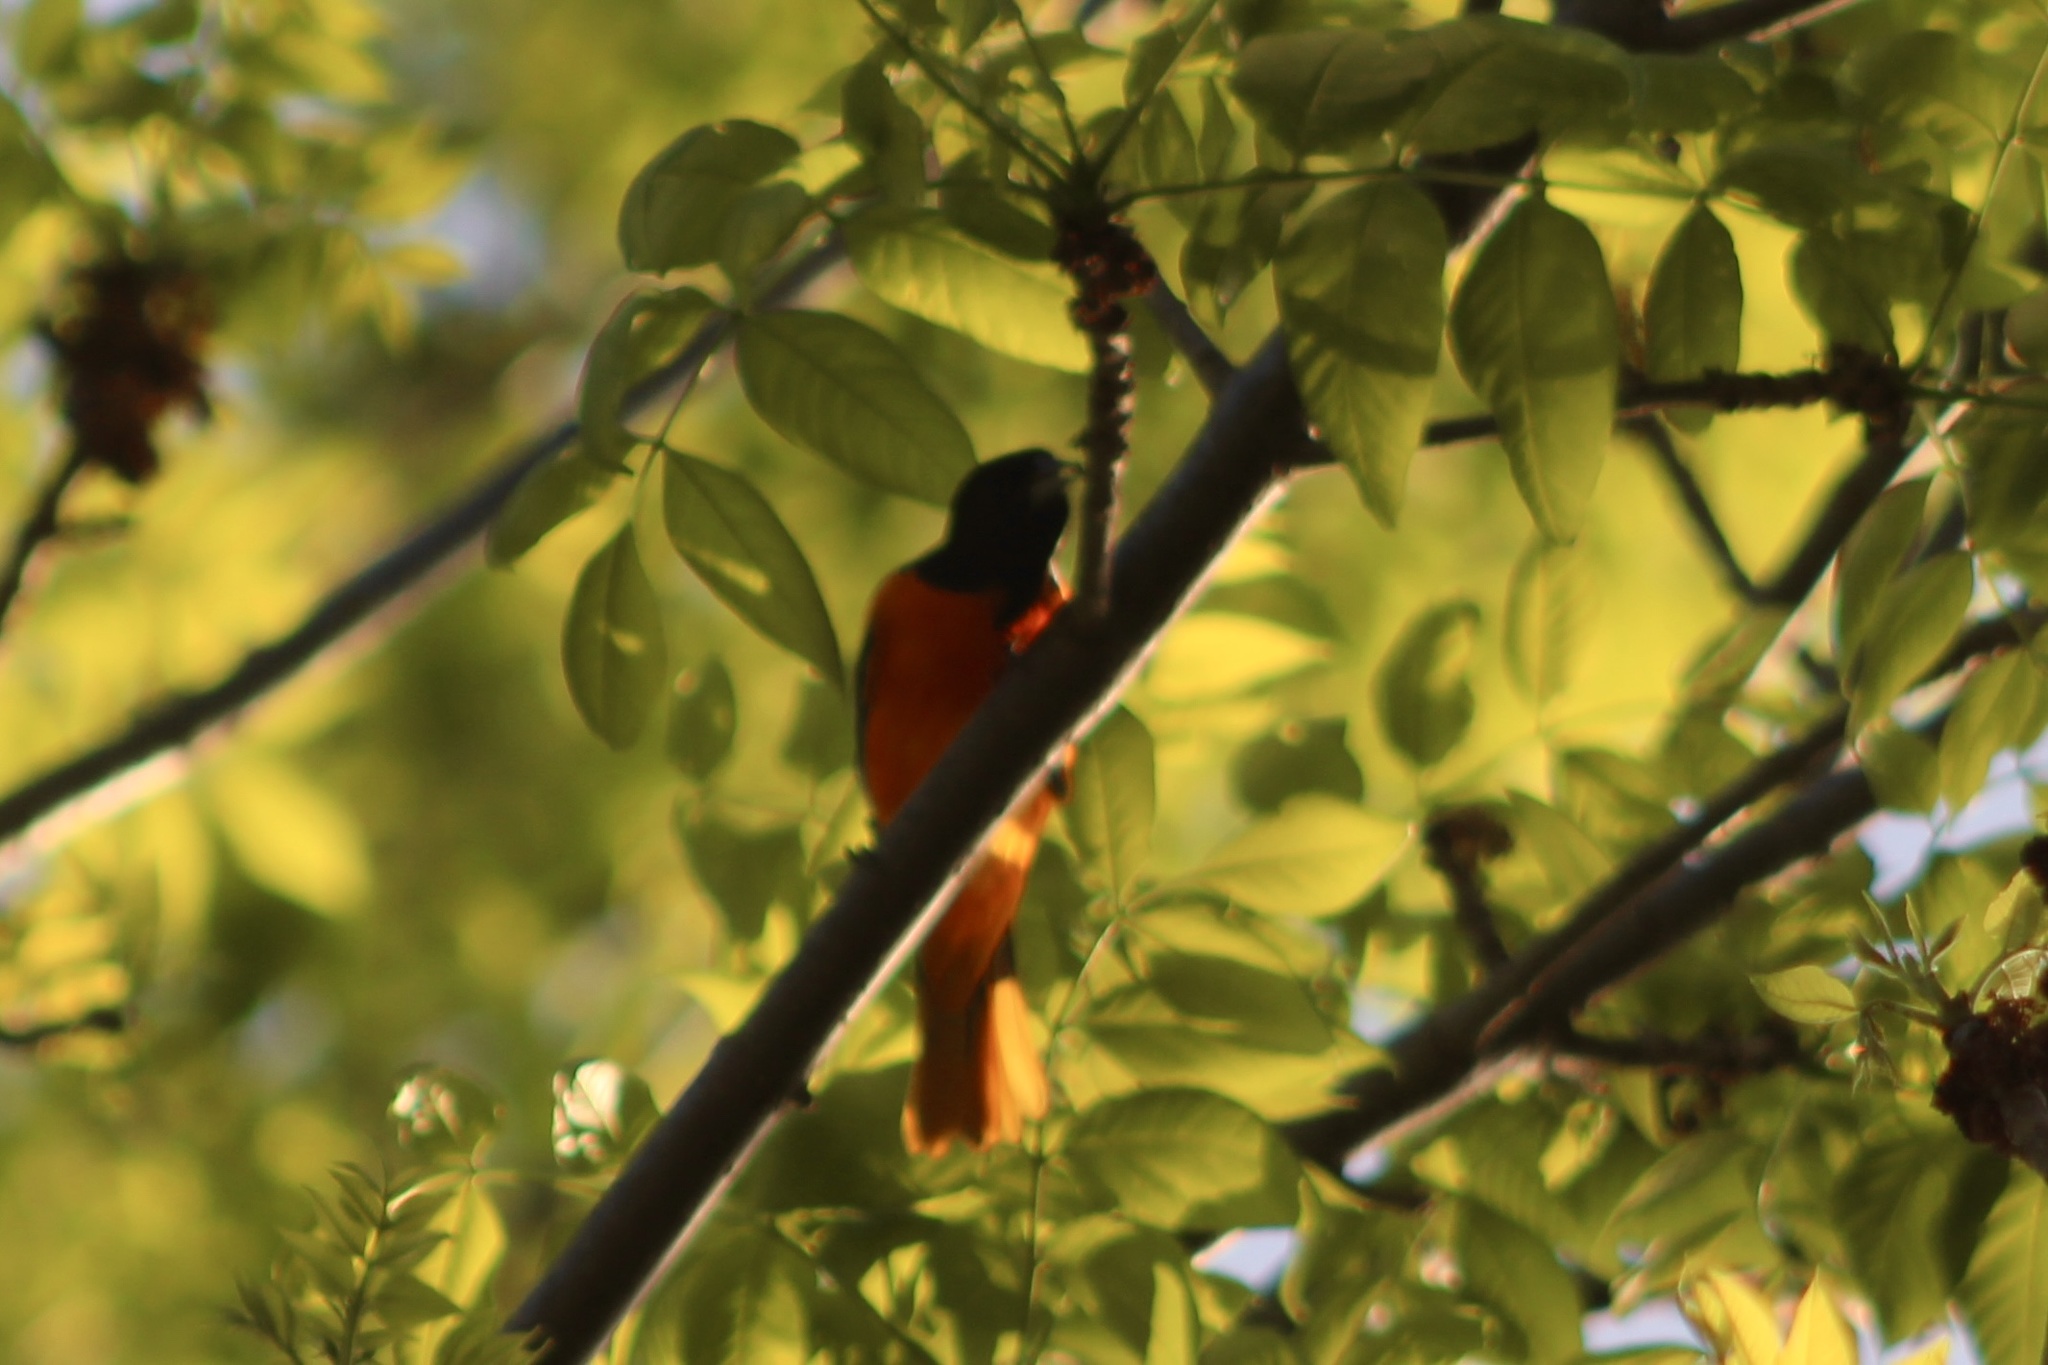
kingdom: Animalia
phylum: Chordata
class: Aves
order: Passeriformes
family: Icteridae
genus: Icterus
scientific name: Icterus galbula
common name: Baltimore oriole
